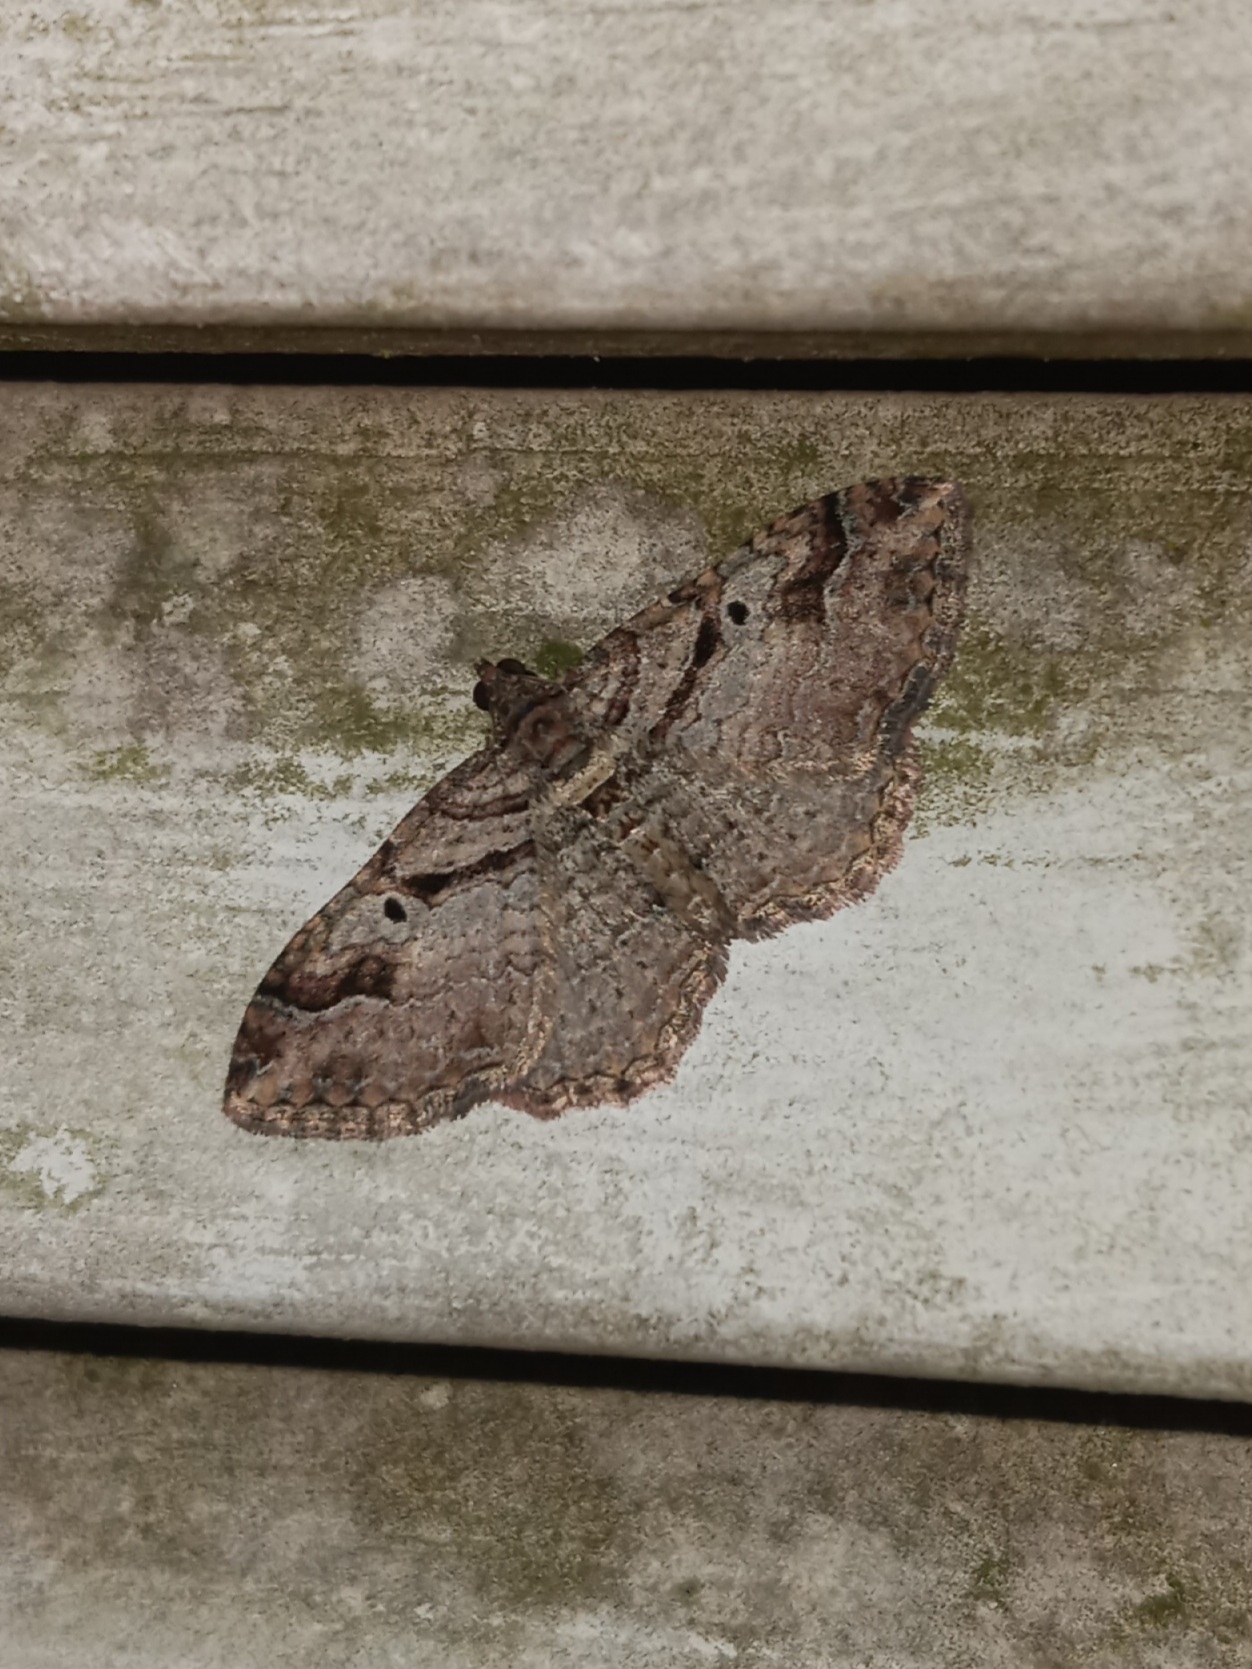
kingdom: Animalia
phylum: Arthropoda
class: Insecta
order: Lepidoptera
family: Geometridae
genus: Costaconvexa
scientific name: Costaconvexa centrostrigaria
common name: Bent-line carpet
